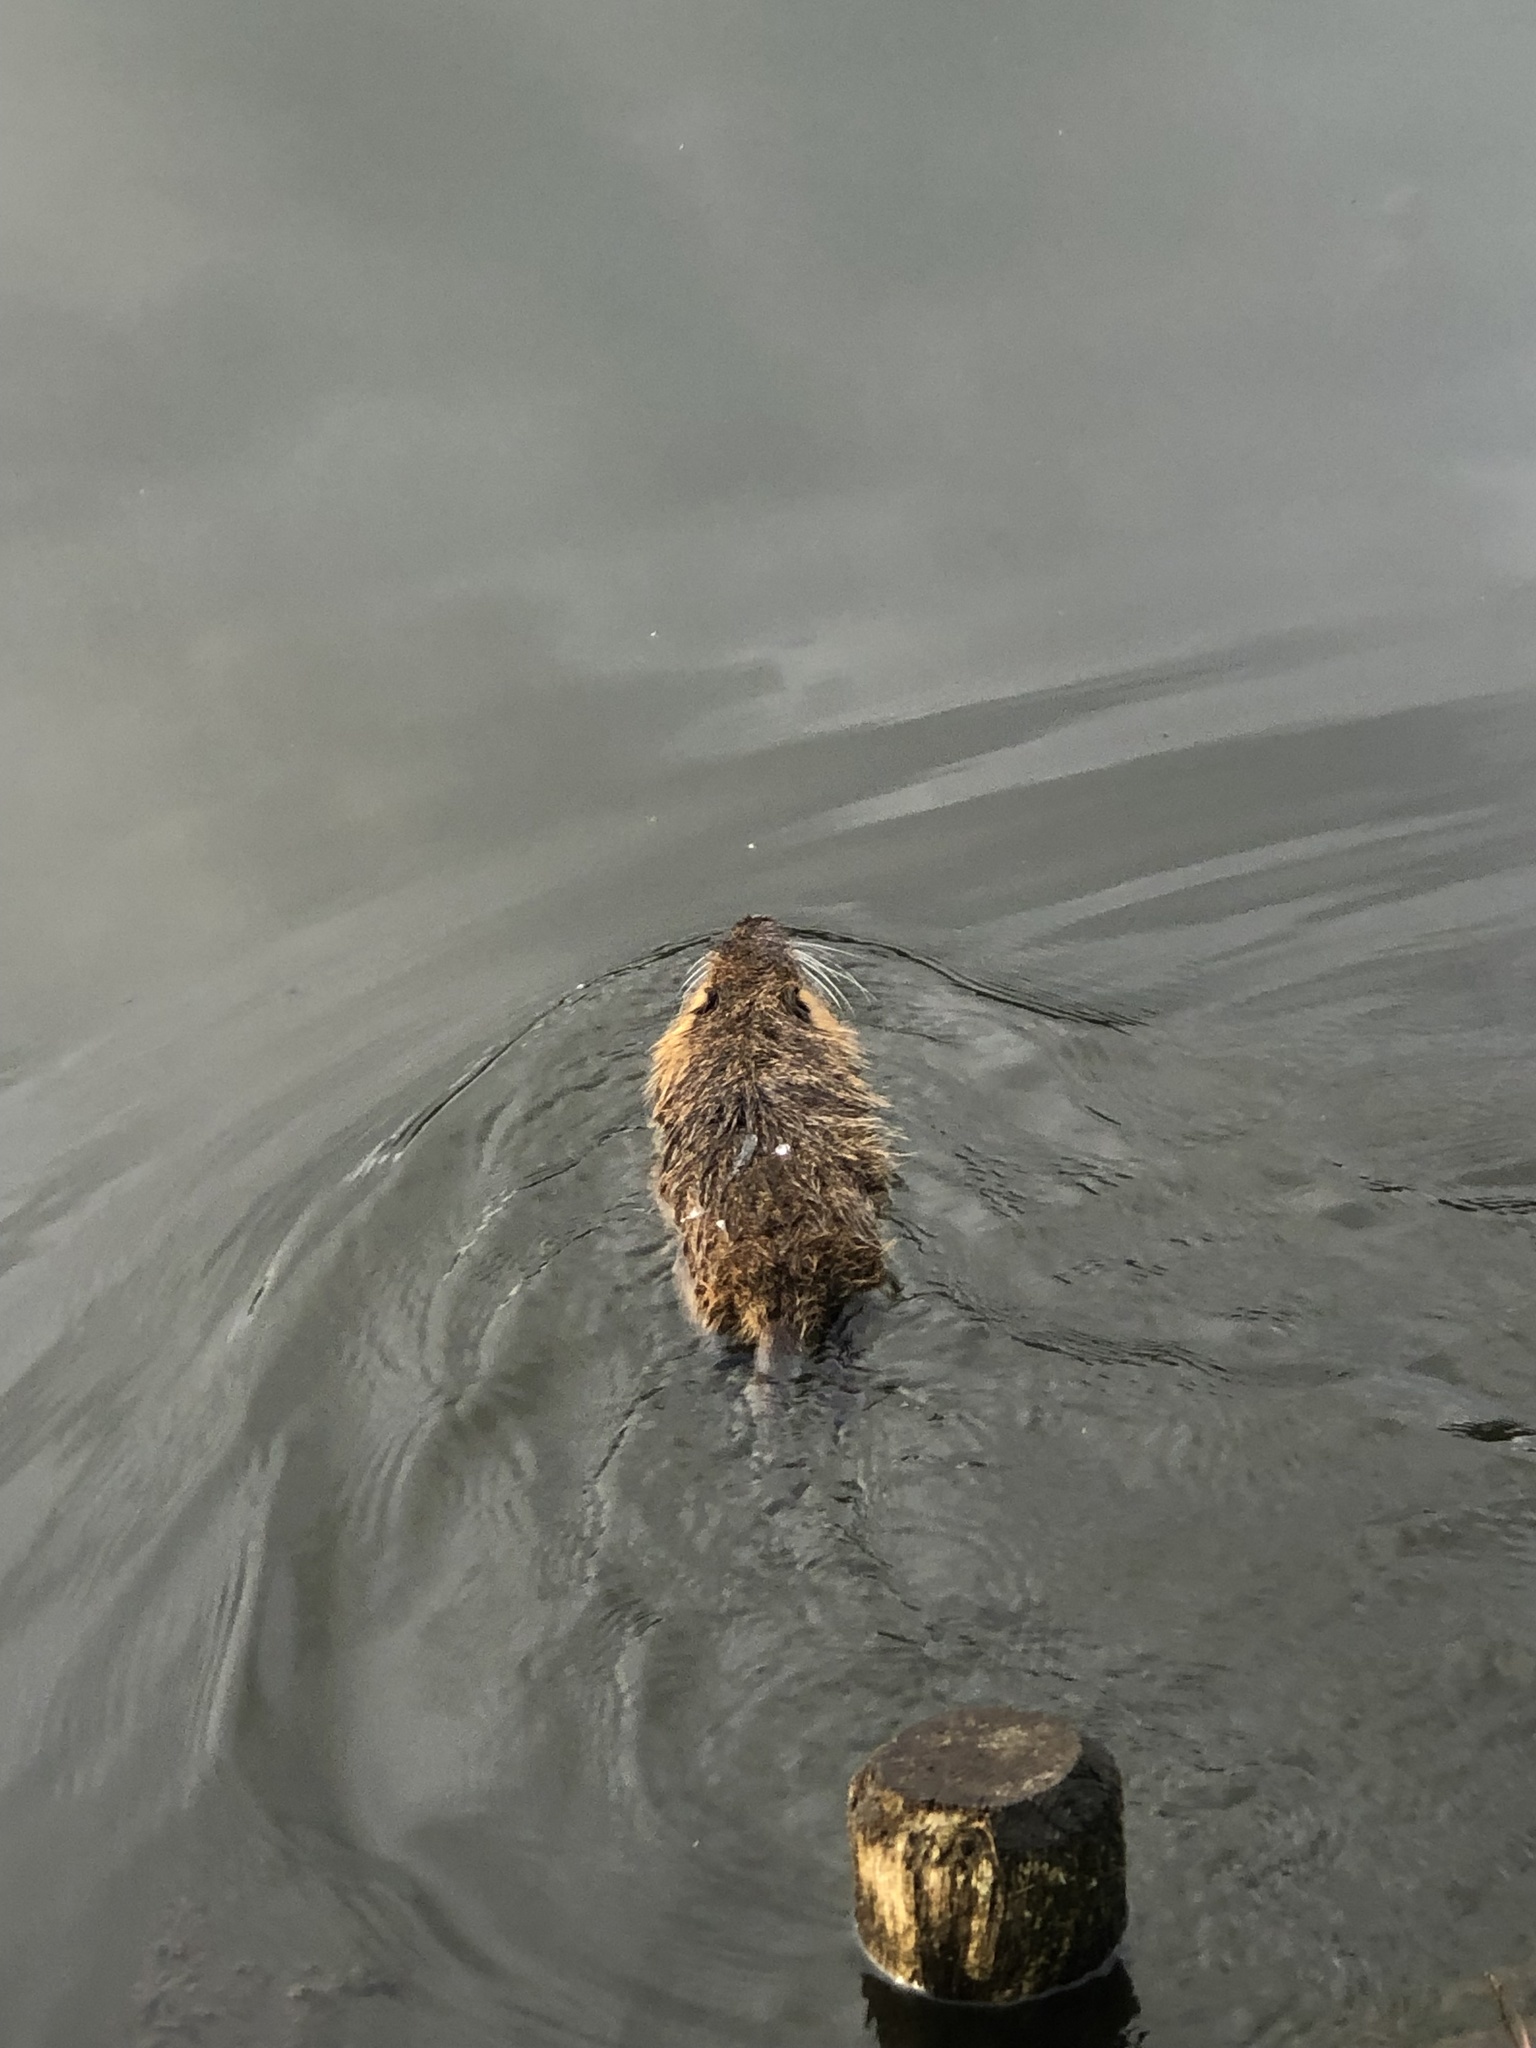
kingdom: Animalia
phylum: Chordata
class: Mammalia
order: Rodentia
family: Myocastoridae
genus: Myocastor
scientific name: Myocastor coypus
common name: Coypu
